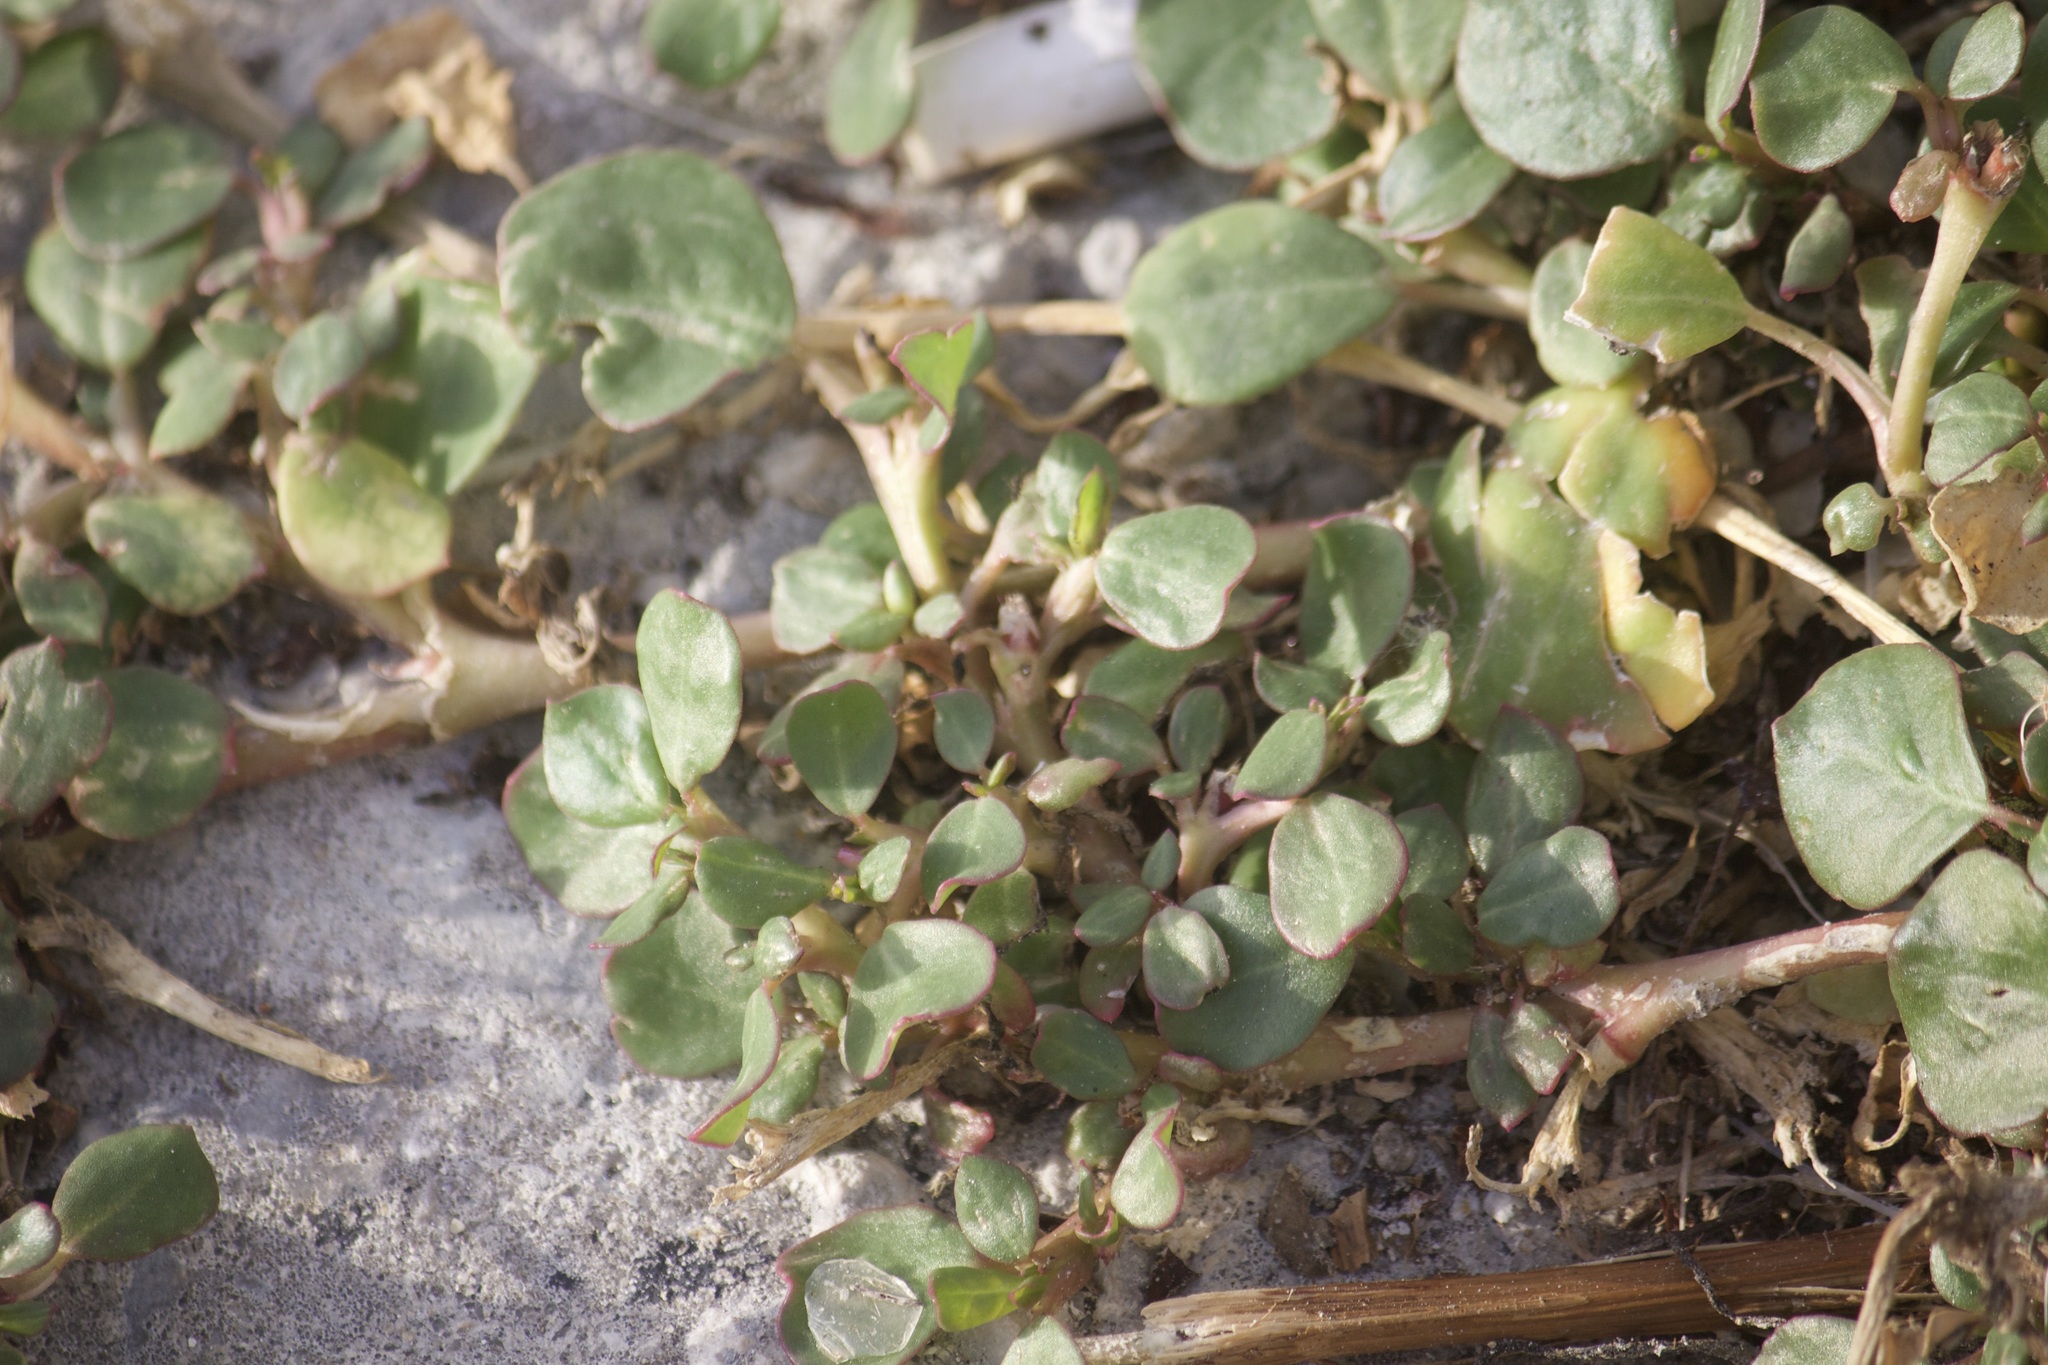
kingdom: Plantae
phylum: Tracheophyta
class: Magnoliopsida
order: Caryophyllales
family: Aizoaceae
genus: Trianthema
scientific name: Trianthema portulacastrum
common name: Desert horsepurslane
